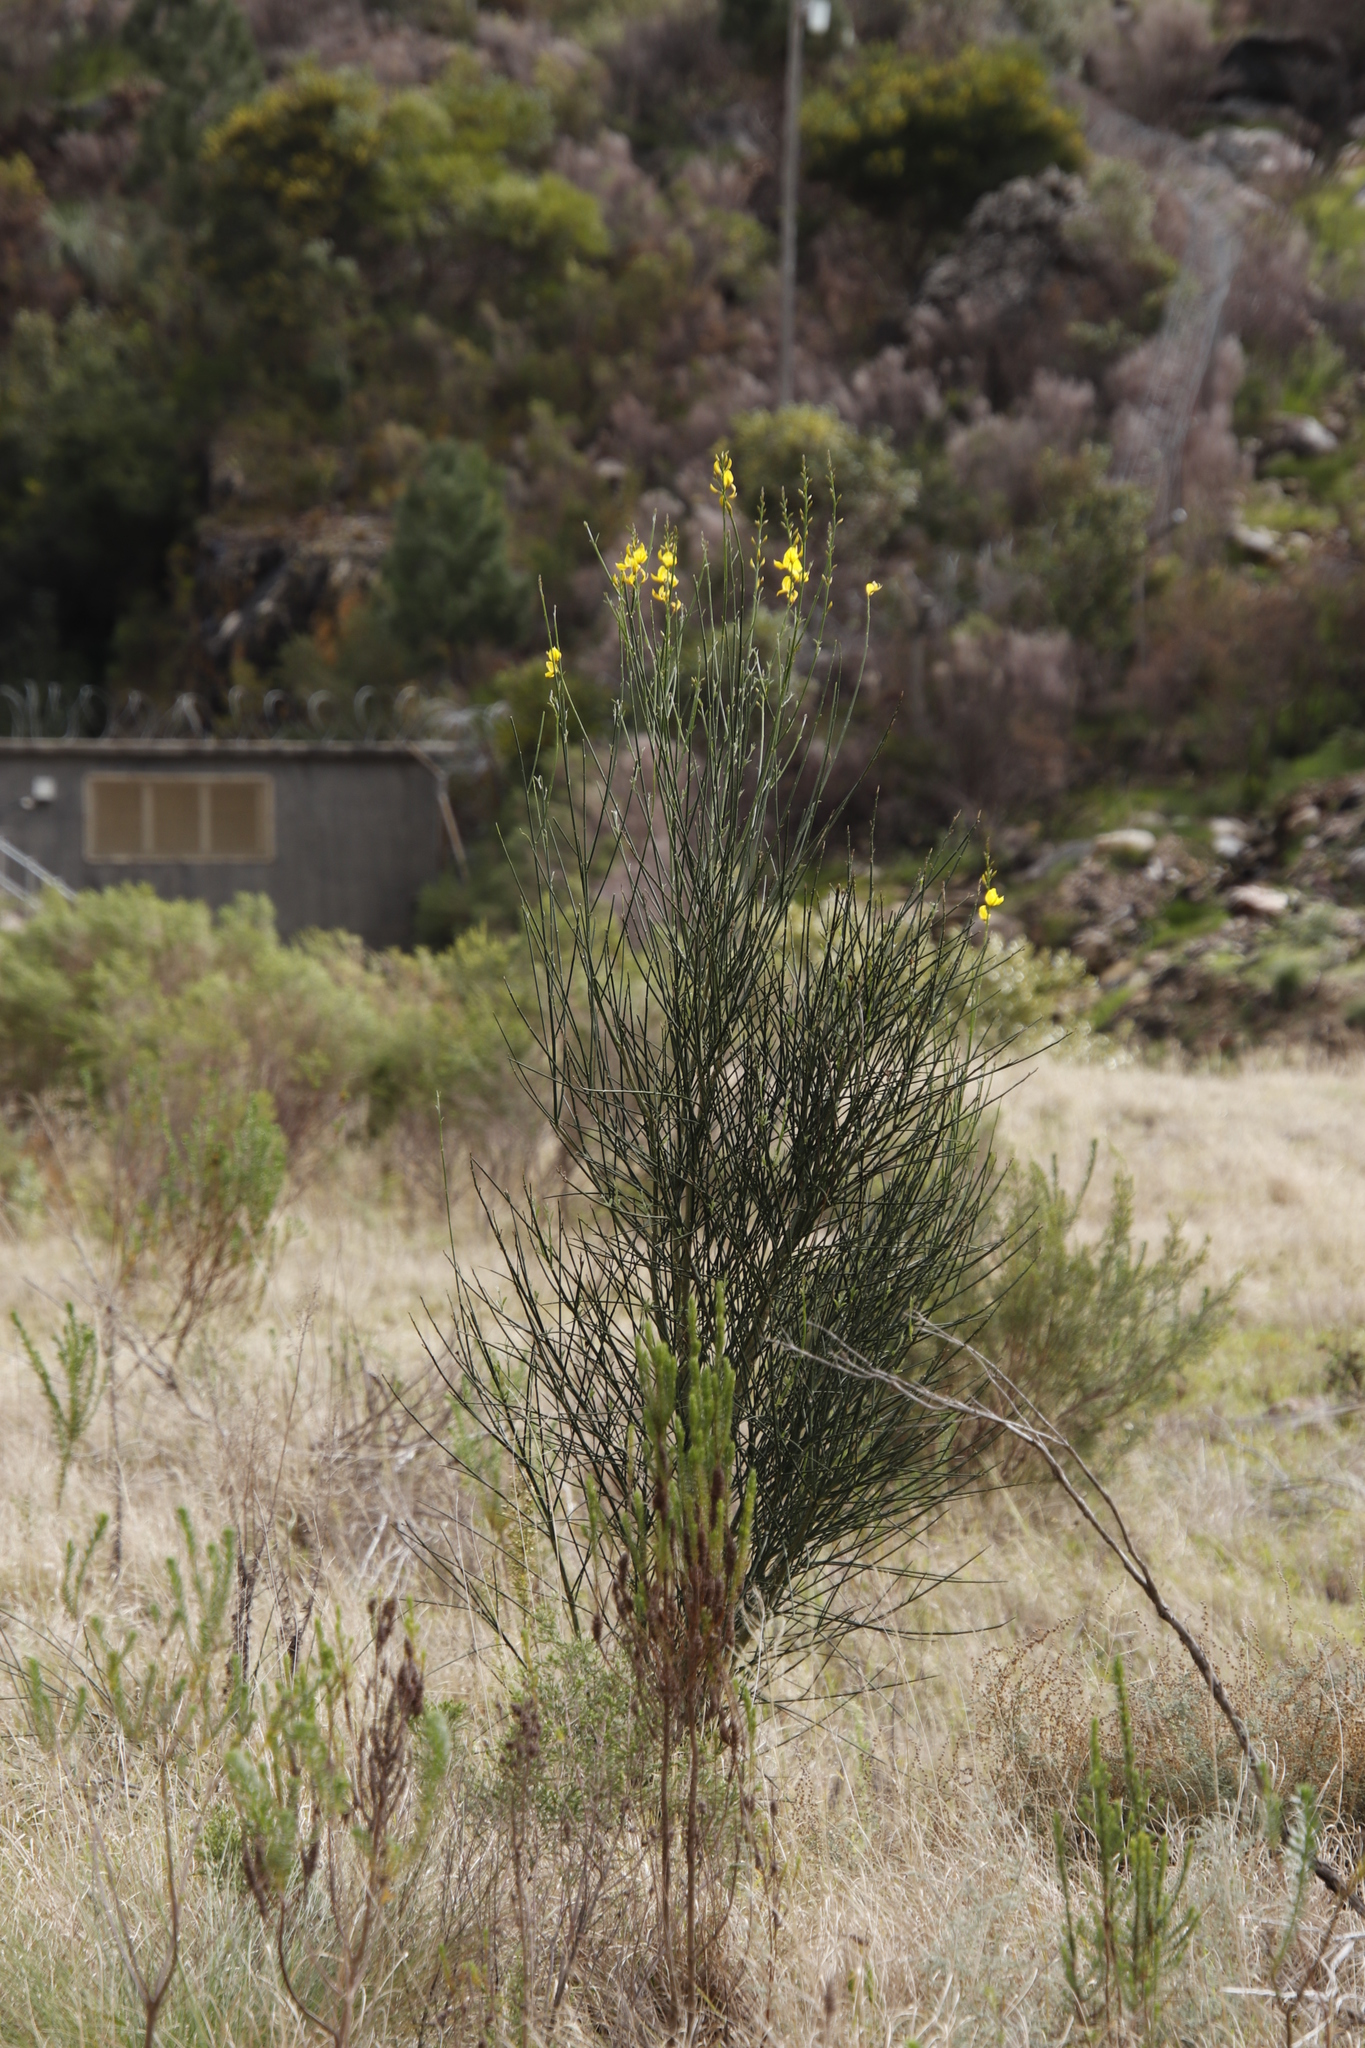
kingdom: Plantae
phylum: Tracheophyta
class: Magnoliopsida
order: Fabales
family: Fabaceae
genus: Spartium
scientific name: Spartium junceum
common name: Spanish broom
